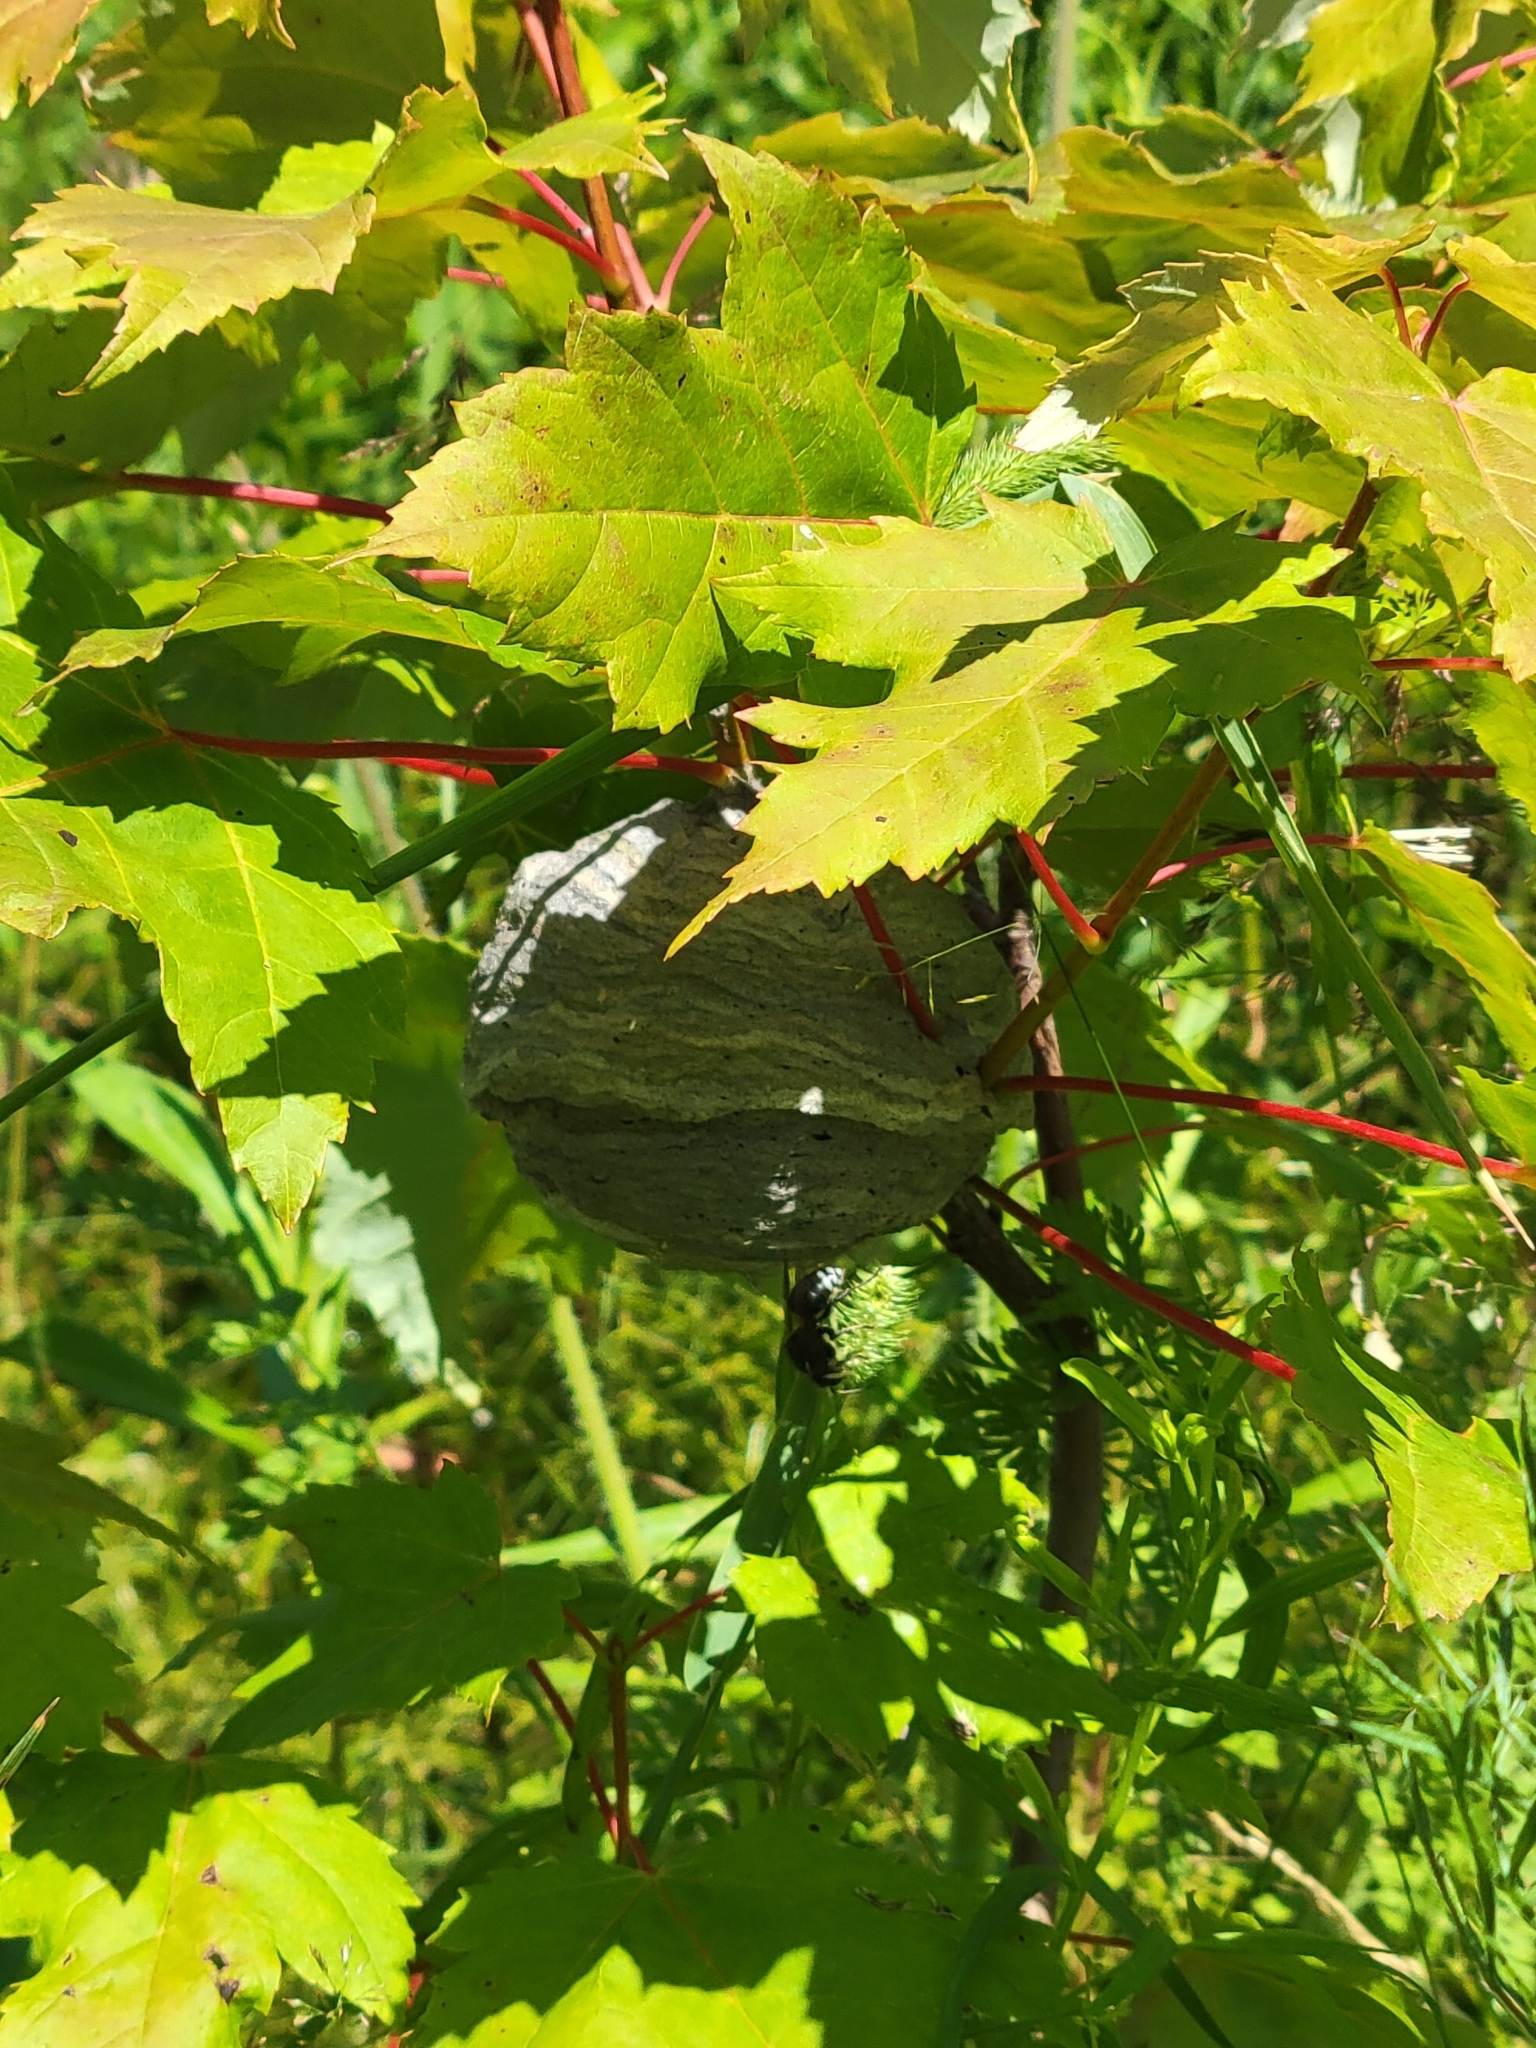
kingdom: Animalia
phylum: Arthropoda
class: Insecta
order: Hymenoptera
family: Vespidae
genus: Dolichovespula
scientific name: Dolichovespula maculata
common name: Bald-faced hornet
